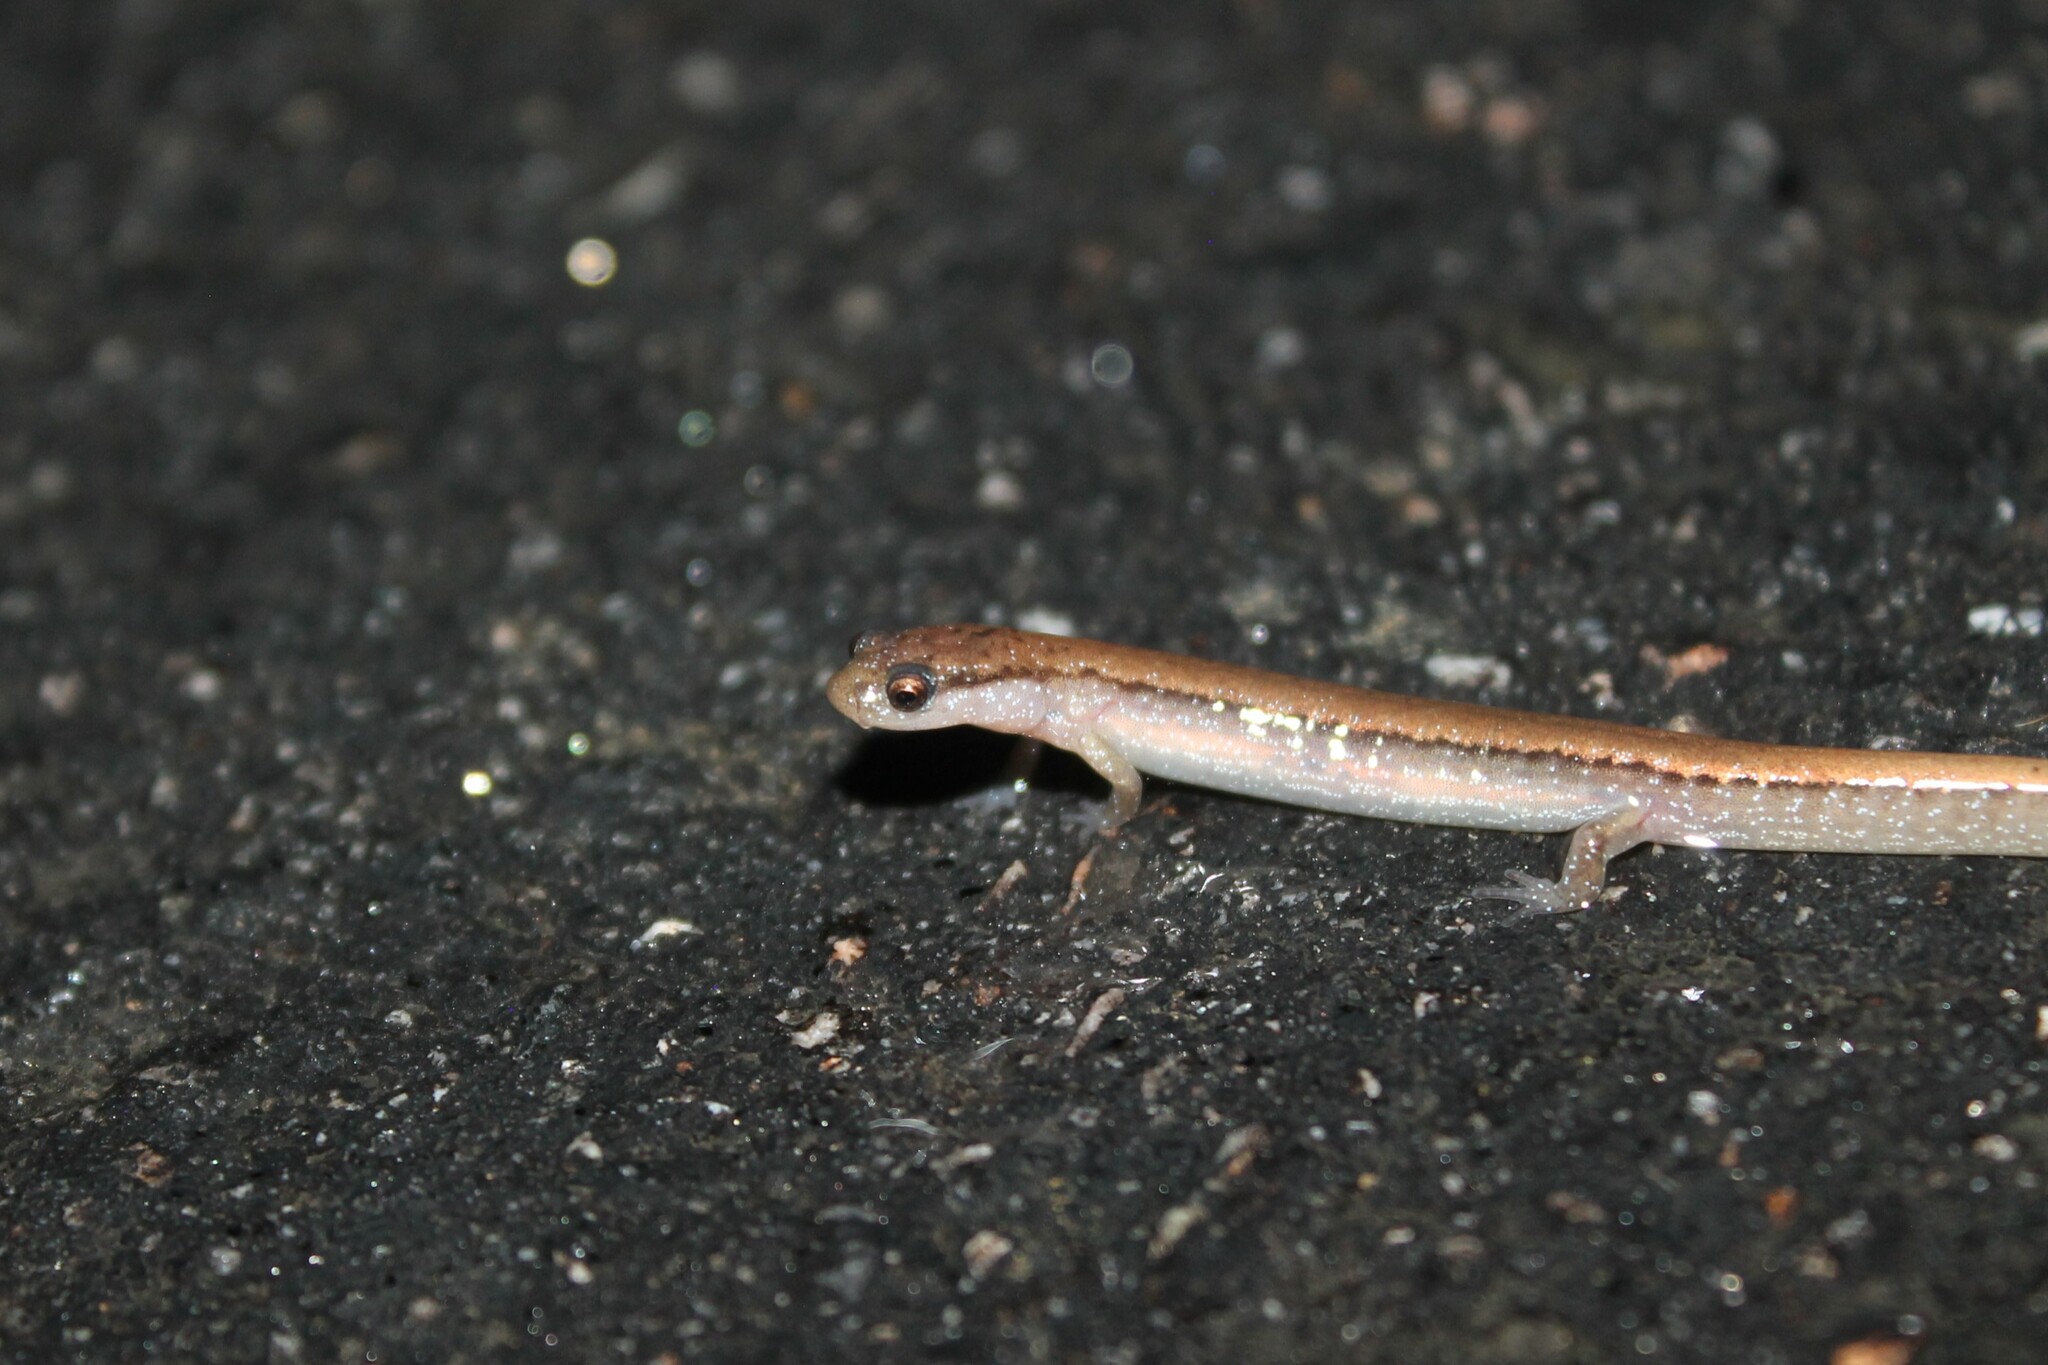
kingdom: Animalia
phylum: Chordata
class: Amphibia
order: Caudata
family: Plethodontidae
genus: Eurycea
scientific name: Eurycea quadridigitata
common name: Dwarf salamander
